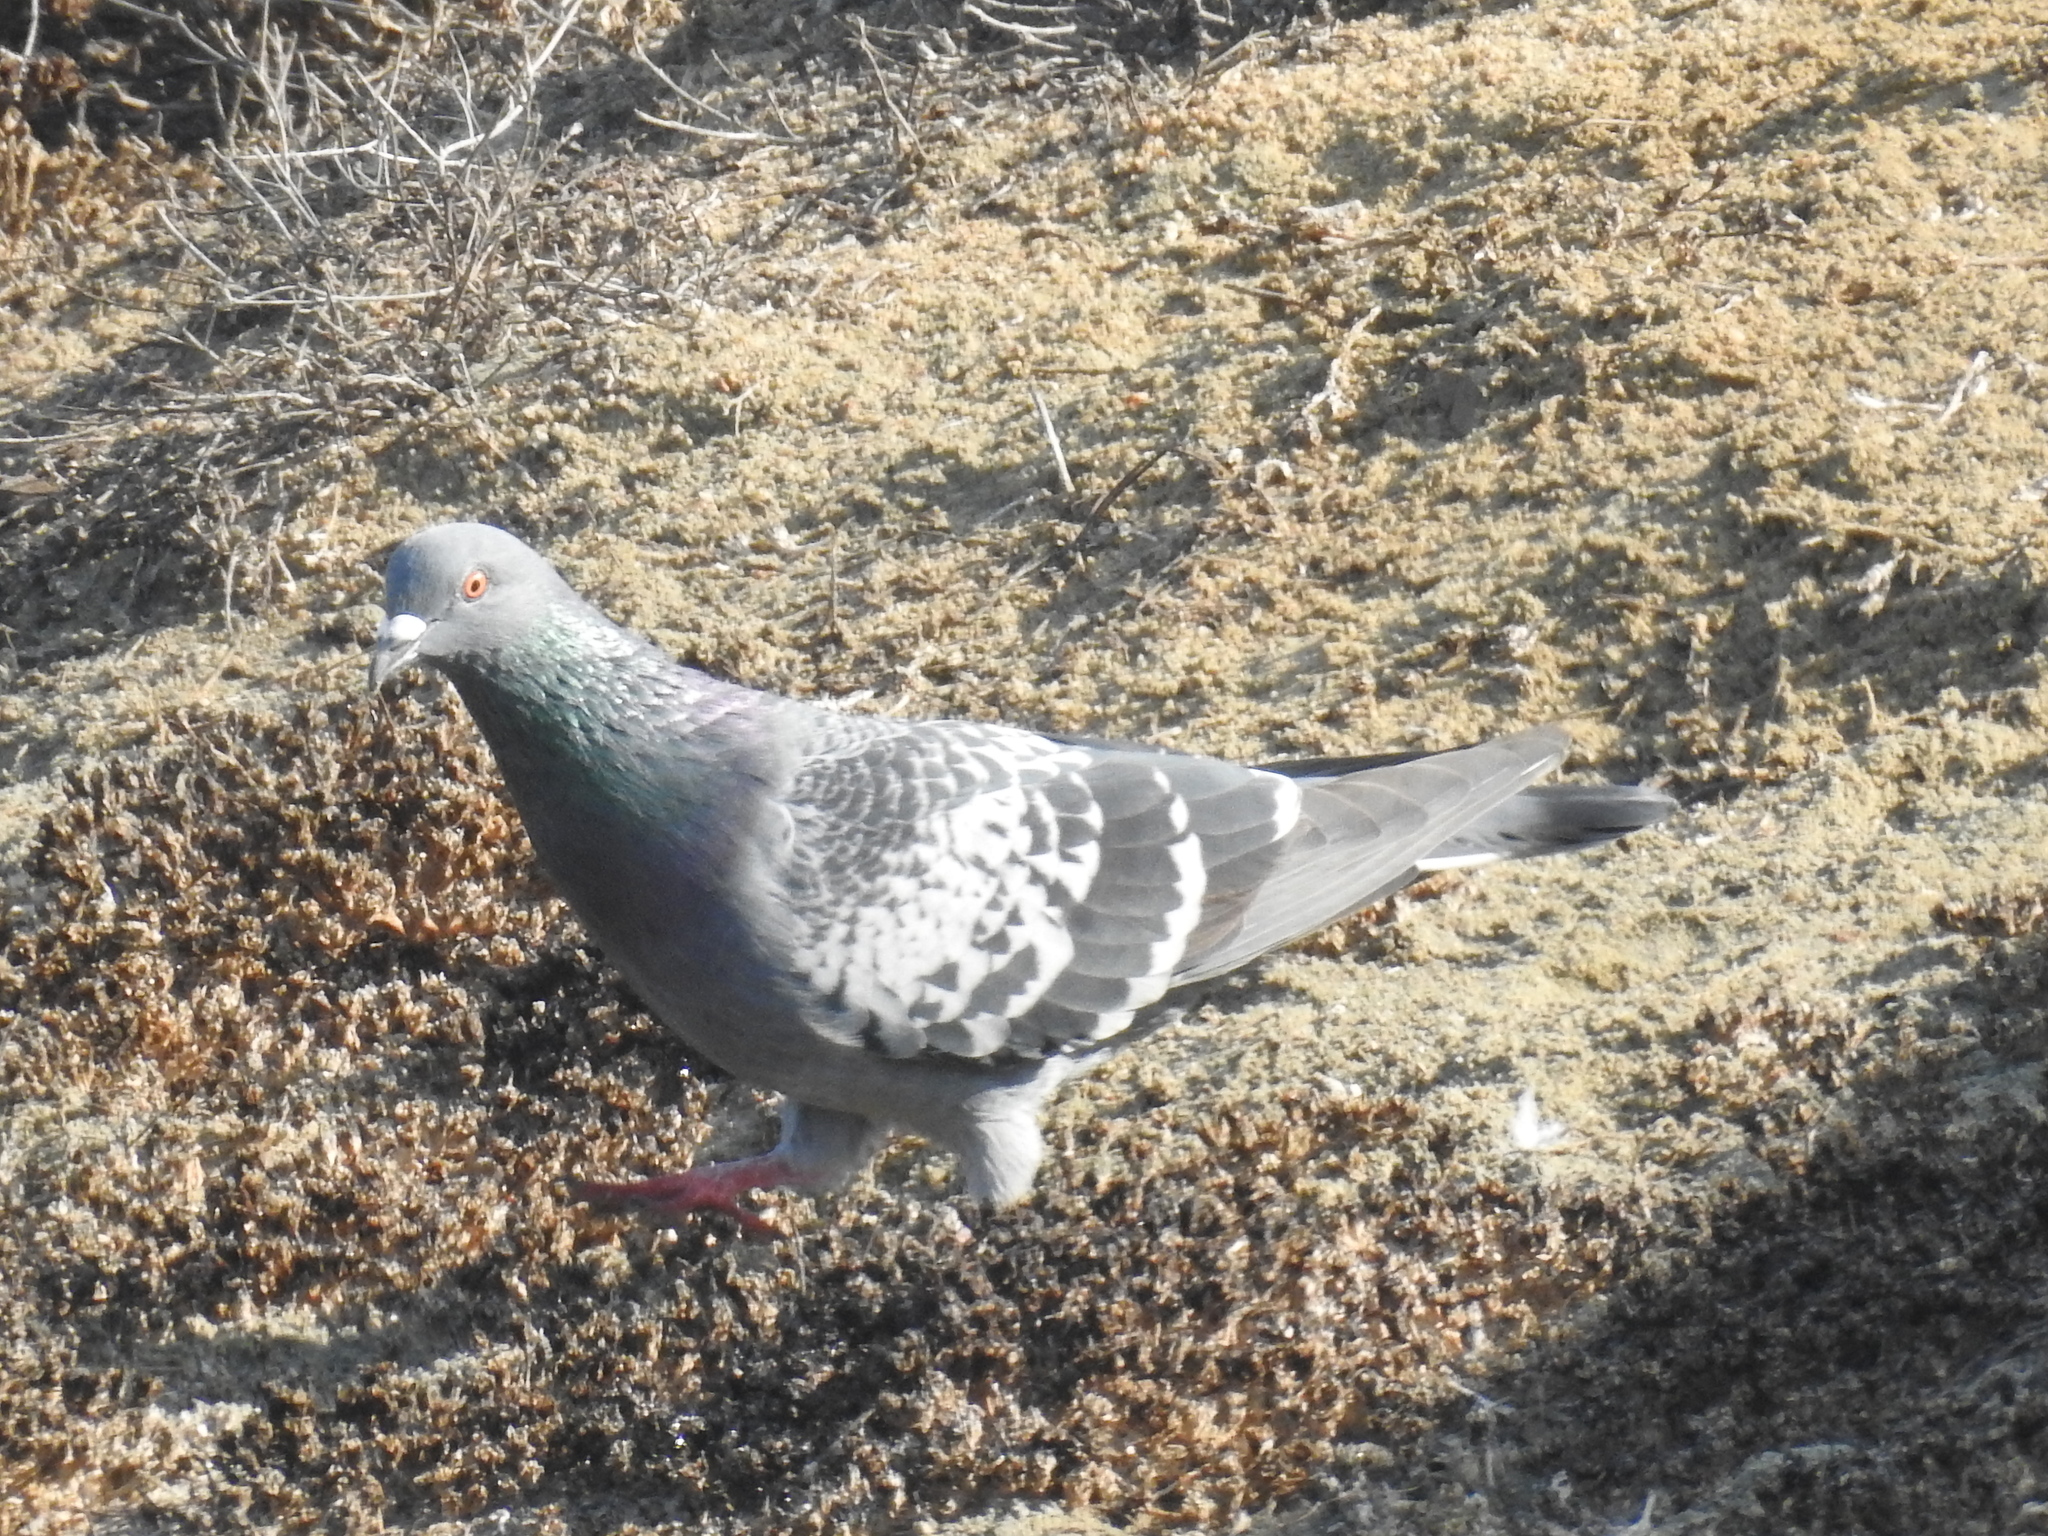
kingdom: Animalia
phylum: Chordata
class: Aves
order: Columbiformes
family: Columbidae
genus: Columba
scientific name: Columba livia
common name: Rock pigeon
